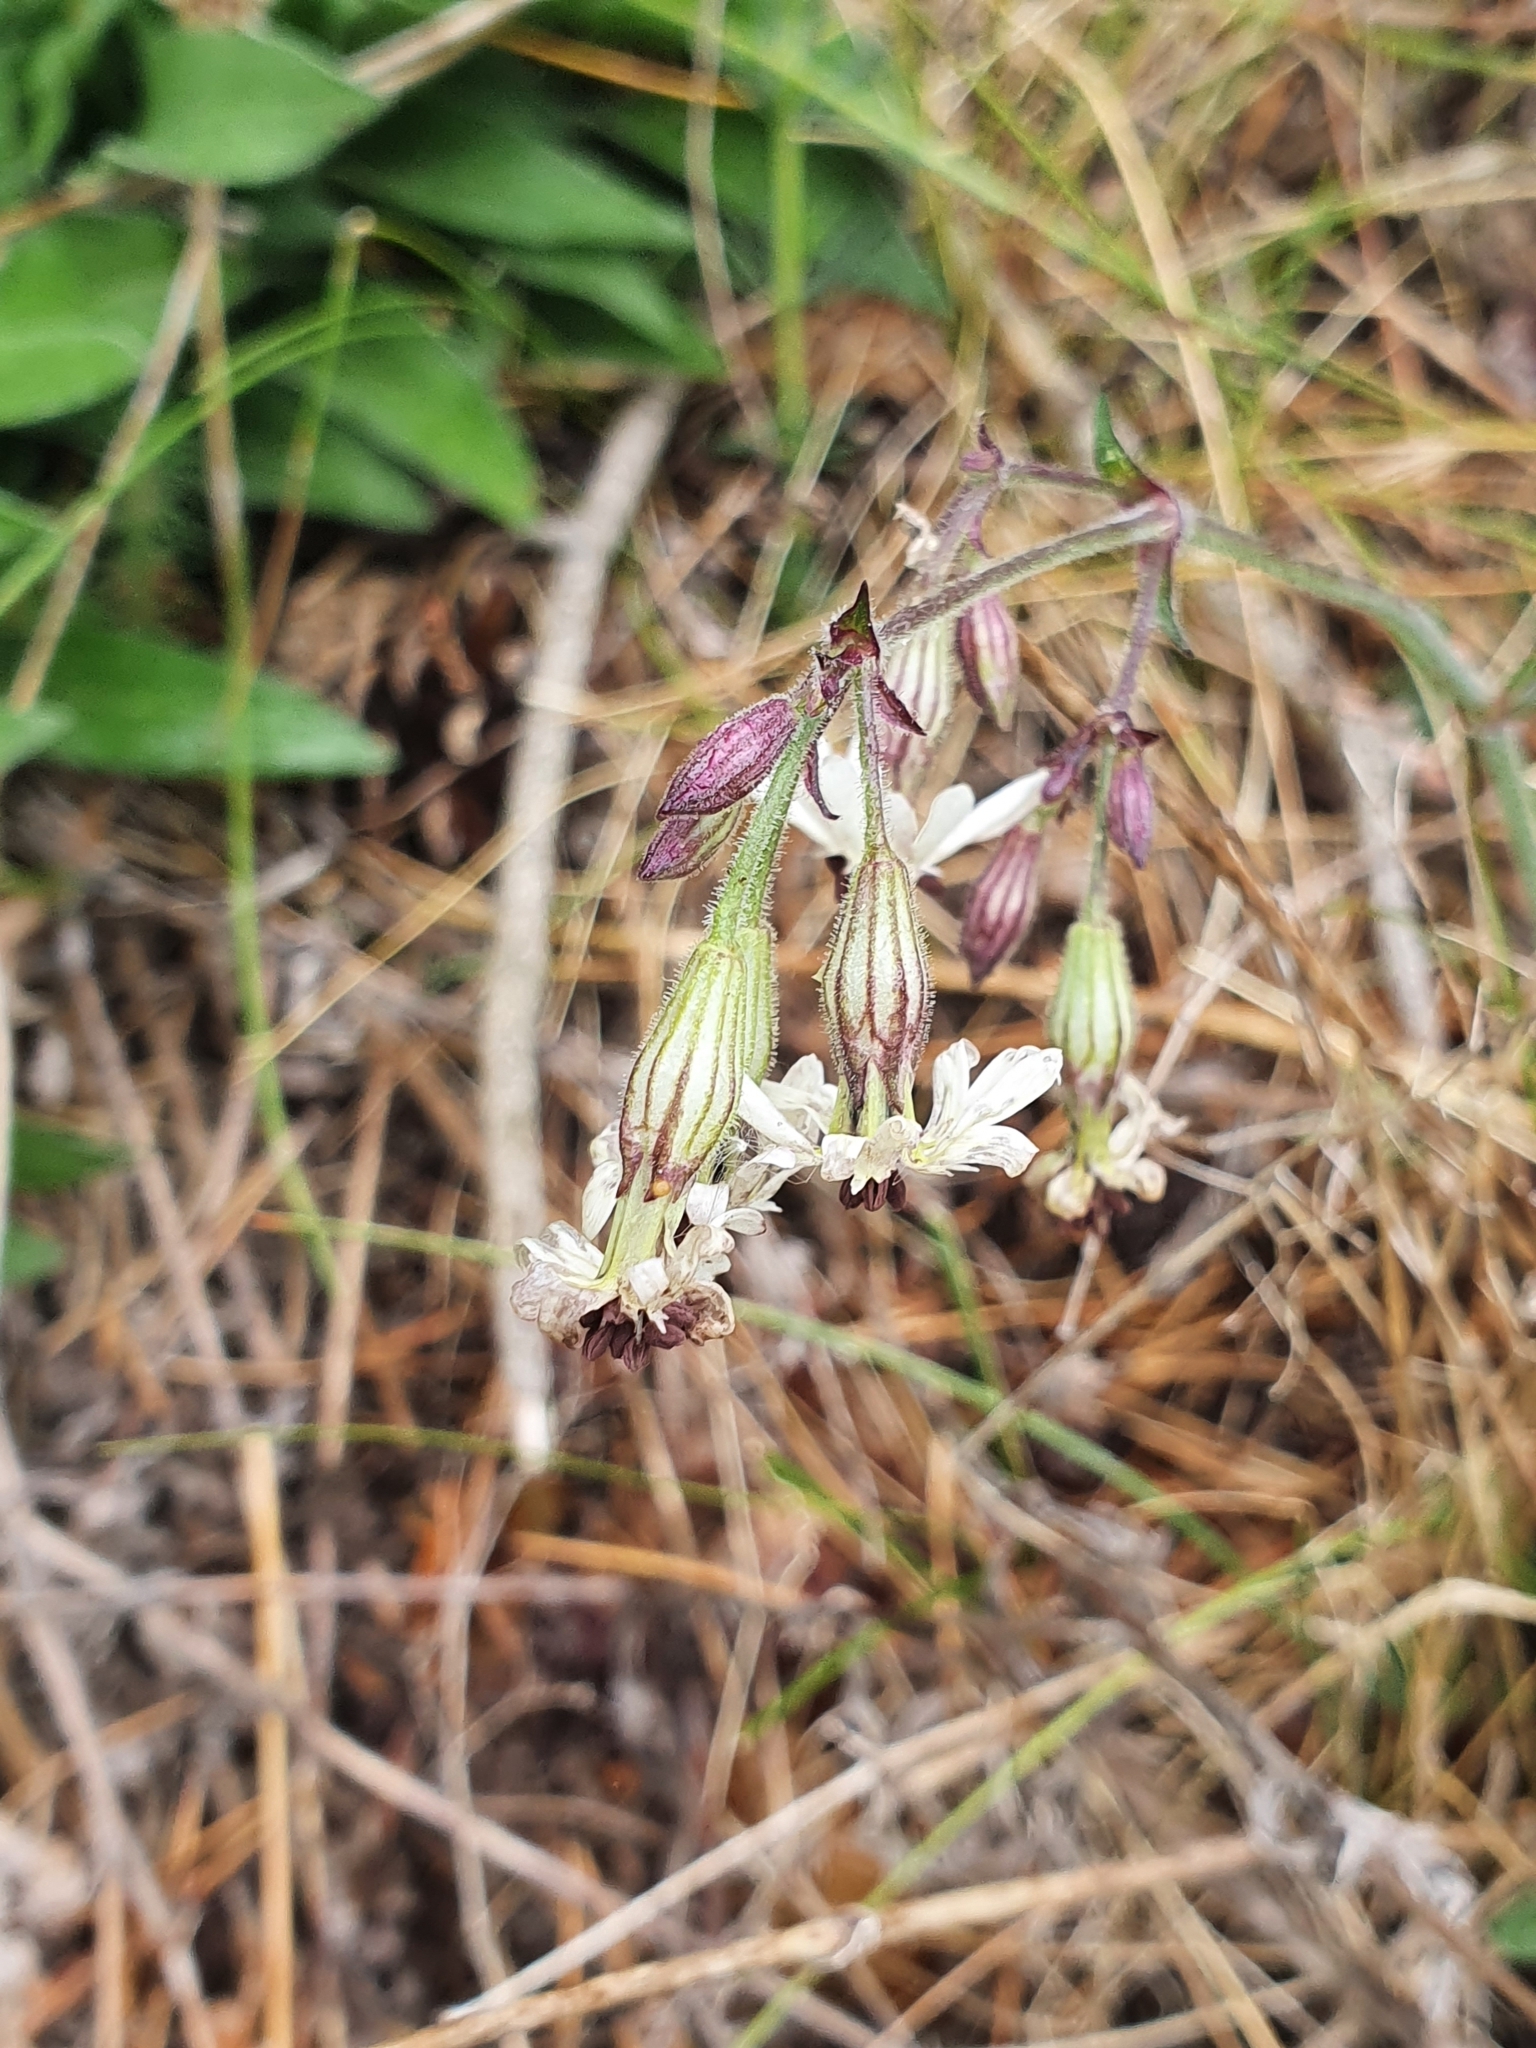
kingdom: Plantae
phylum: Tracheophyta
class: Magnoliopsida
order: Caryophyllales
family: Caryophyllaceae
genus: Silene
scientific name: Silene nutans
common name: Nottingham catchfly
